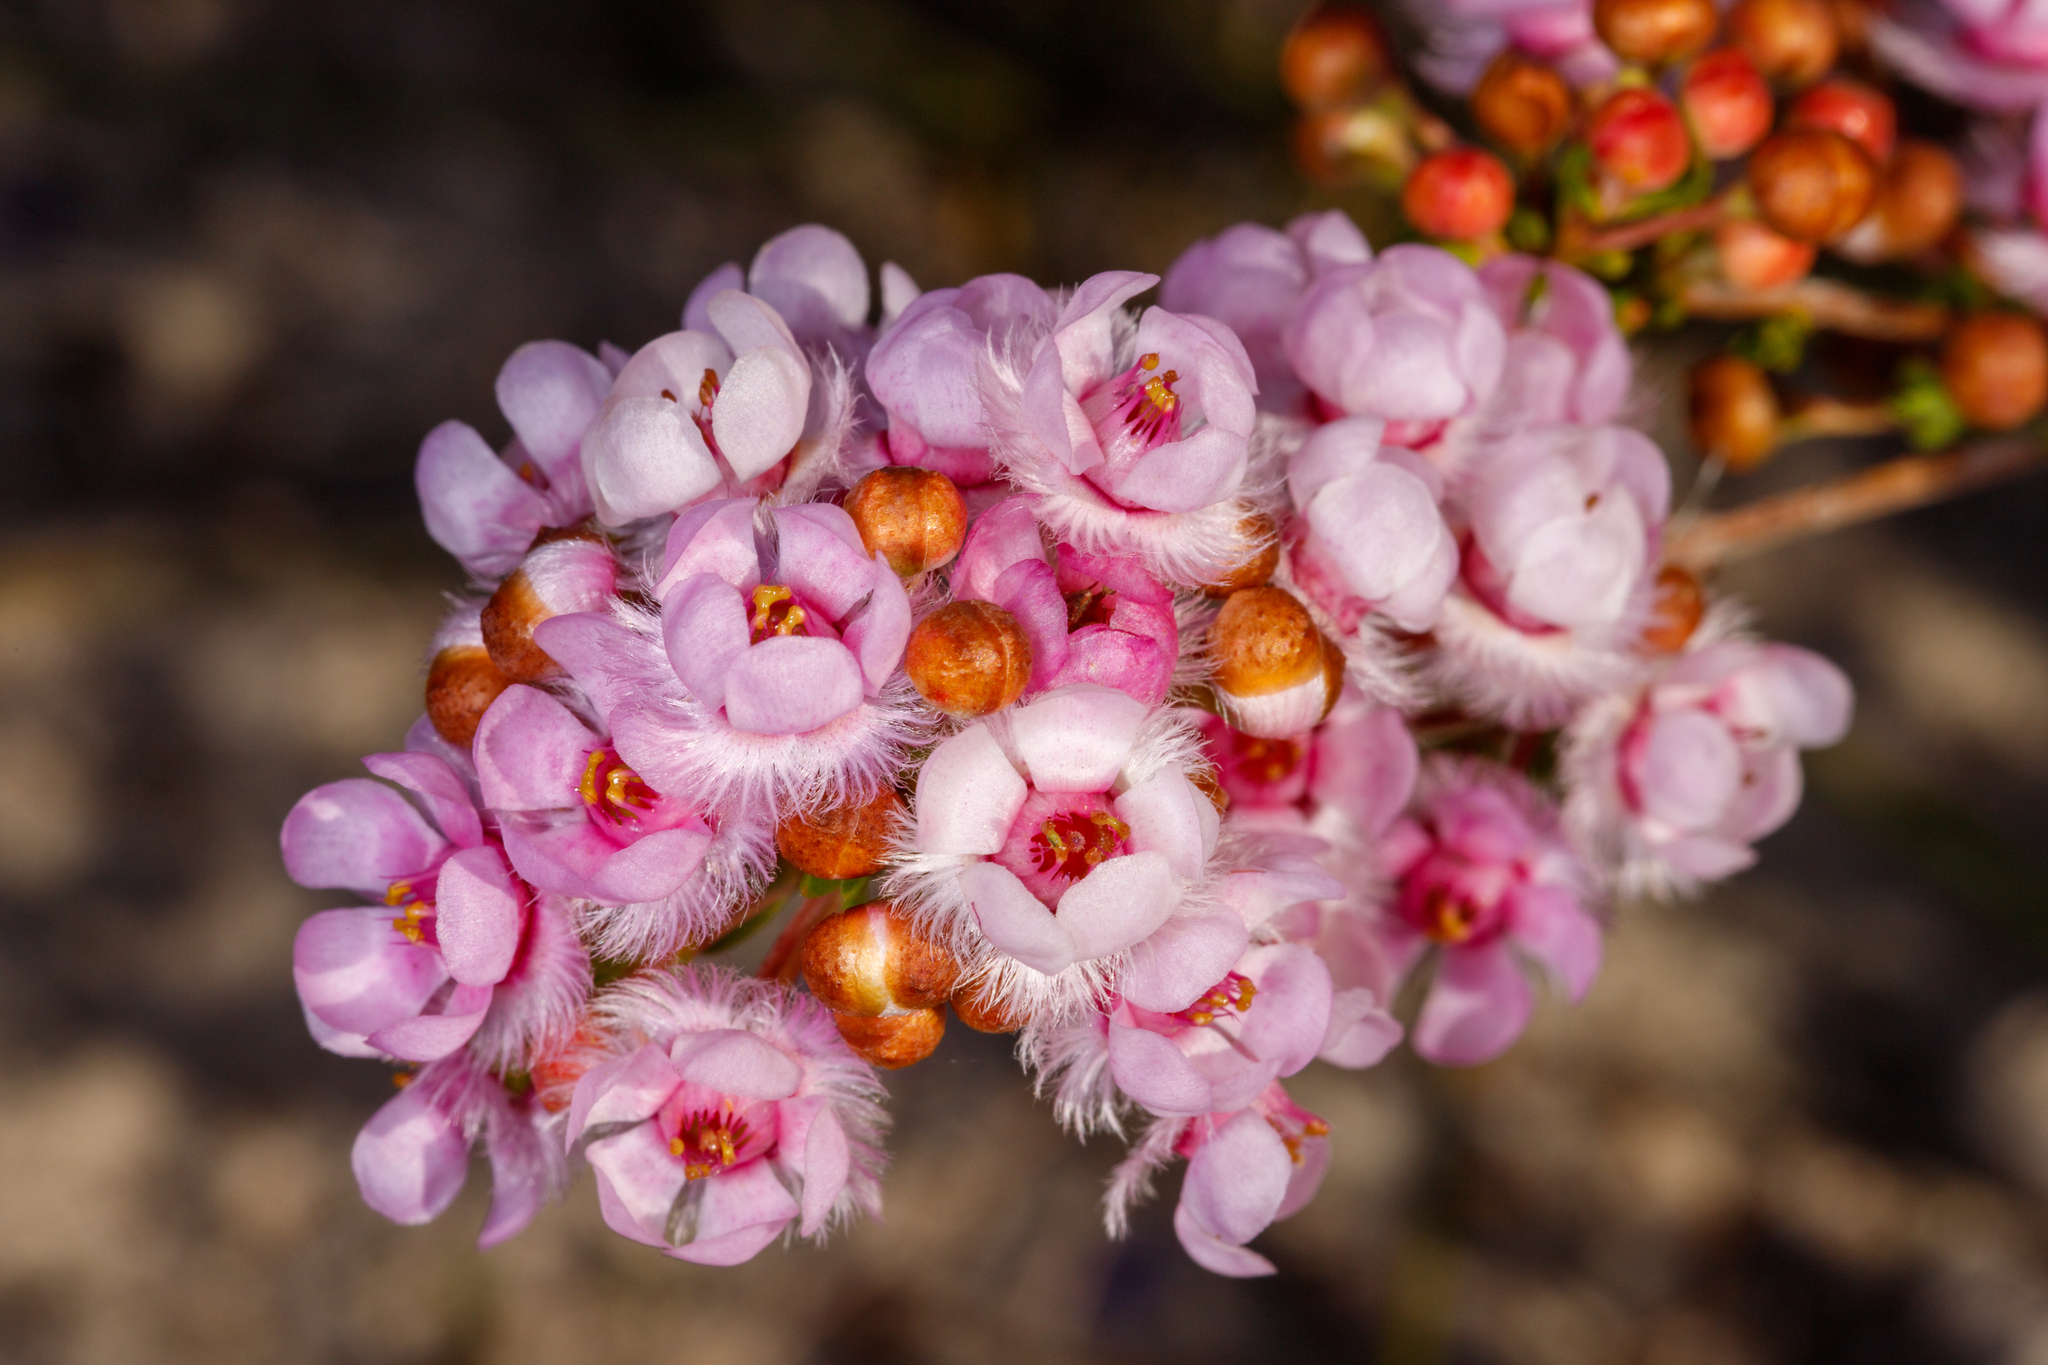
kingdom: Plantae
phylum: Tracheophyta
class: Magnoliopsida
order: Myrtales
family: Myrtaceae
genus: Verticordia
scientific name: Verticordia picta
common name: Painted feather-flower
